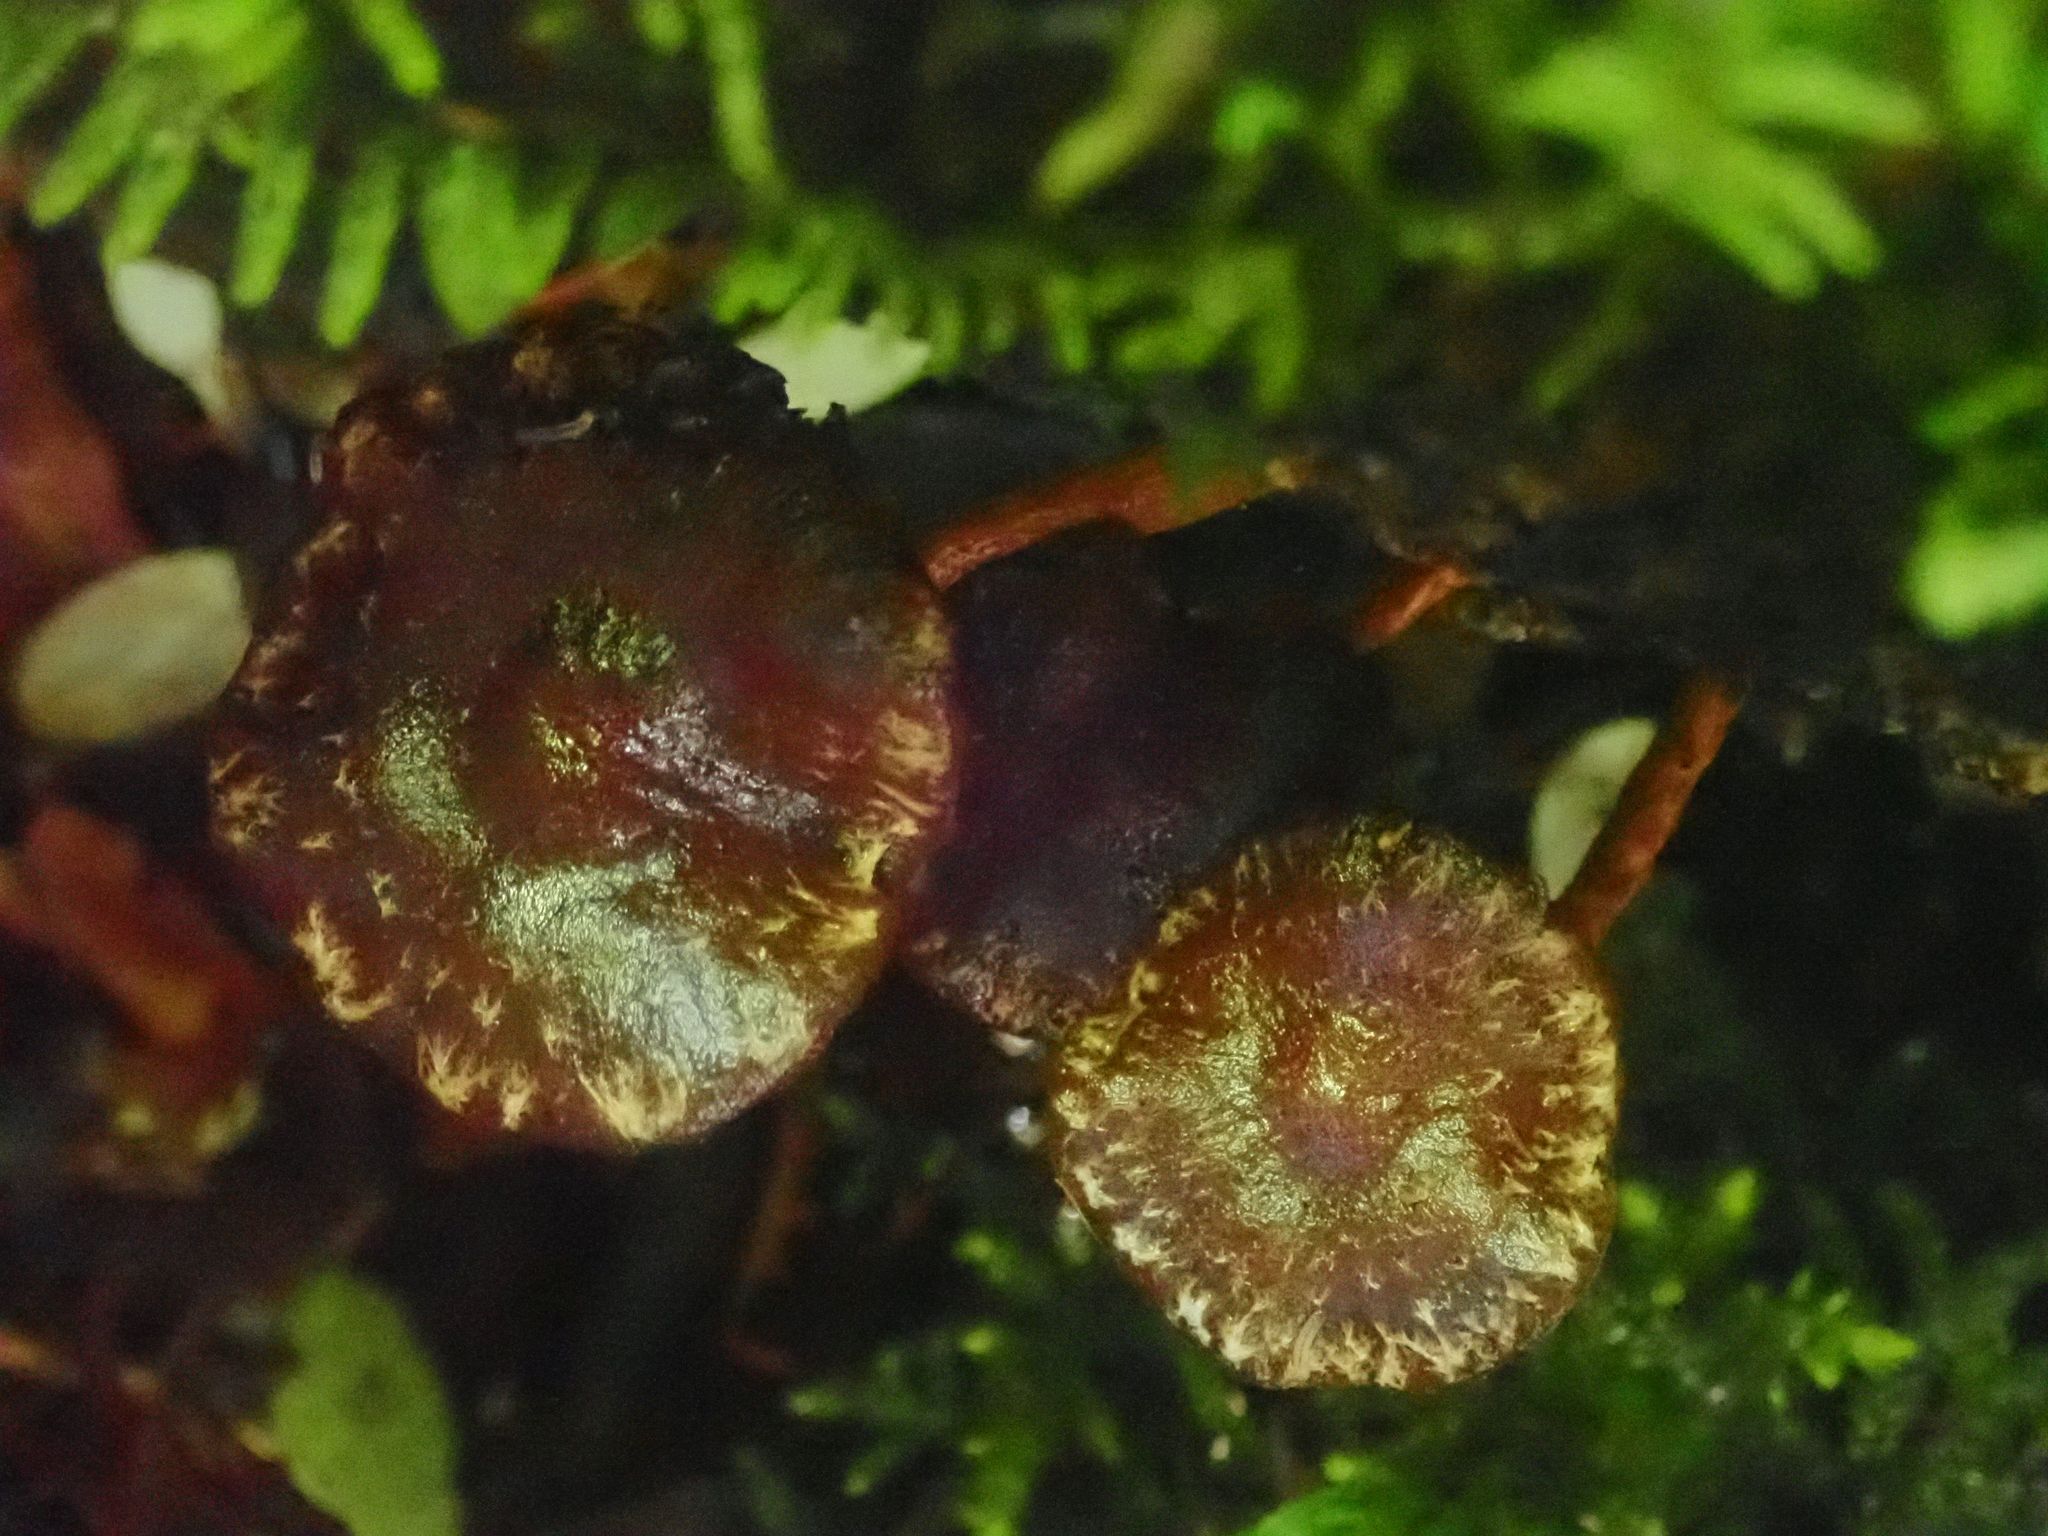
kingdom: Fungi
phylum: Basidiomycota
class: Agaricomycetes
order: Agaricales
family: Strophariaceae
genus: Hypholoma
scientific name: Hypholoma brunneum
